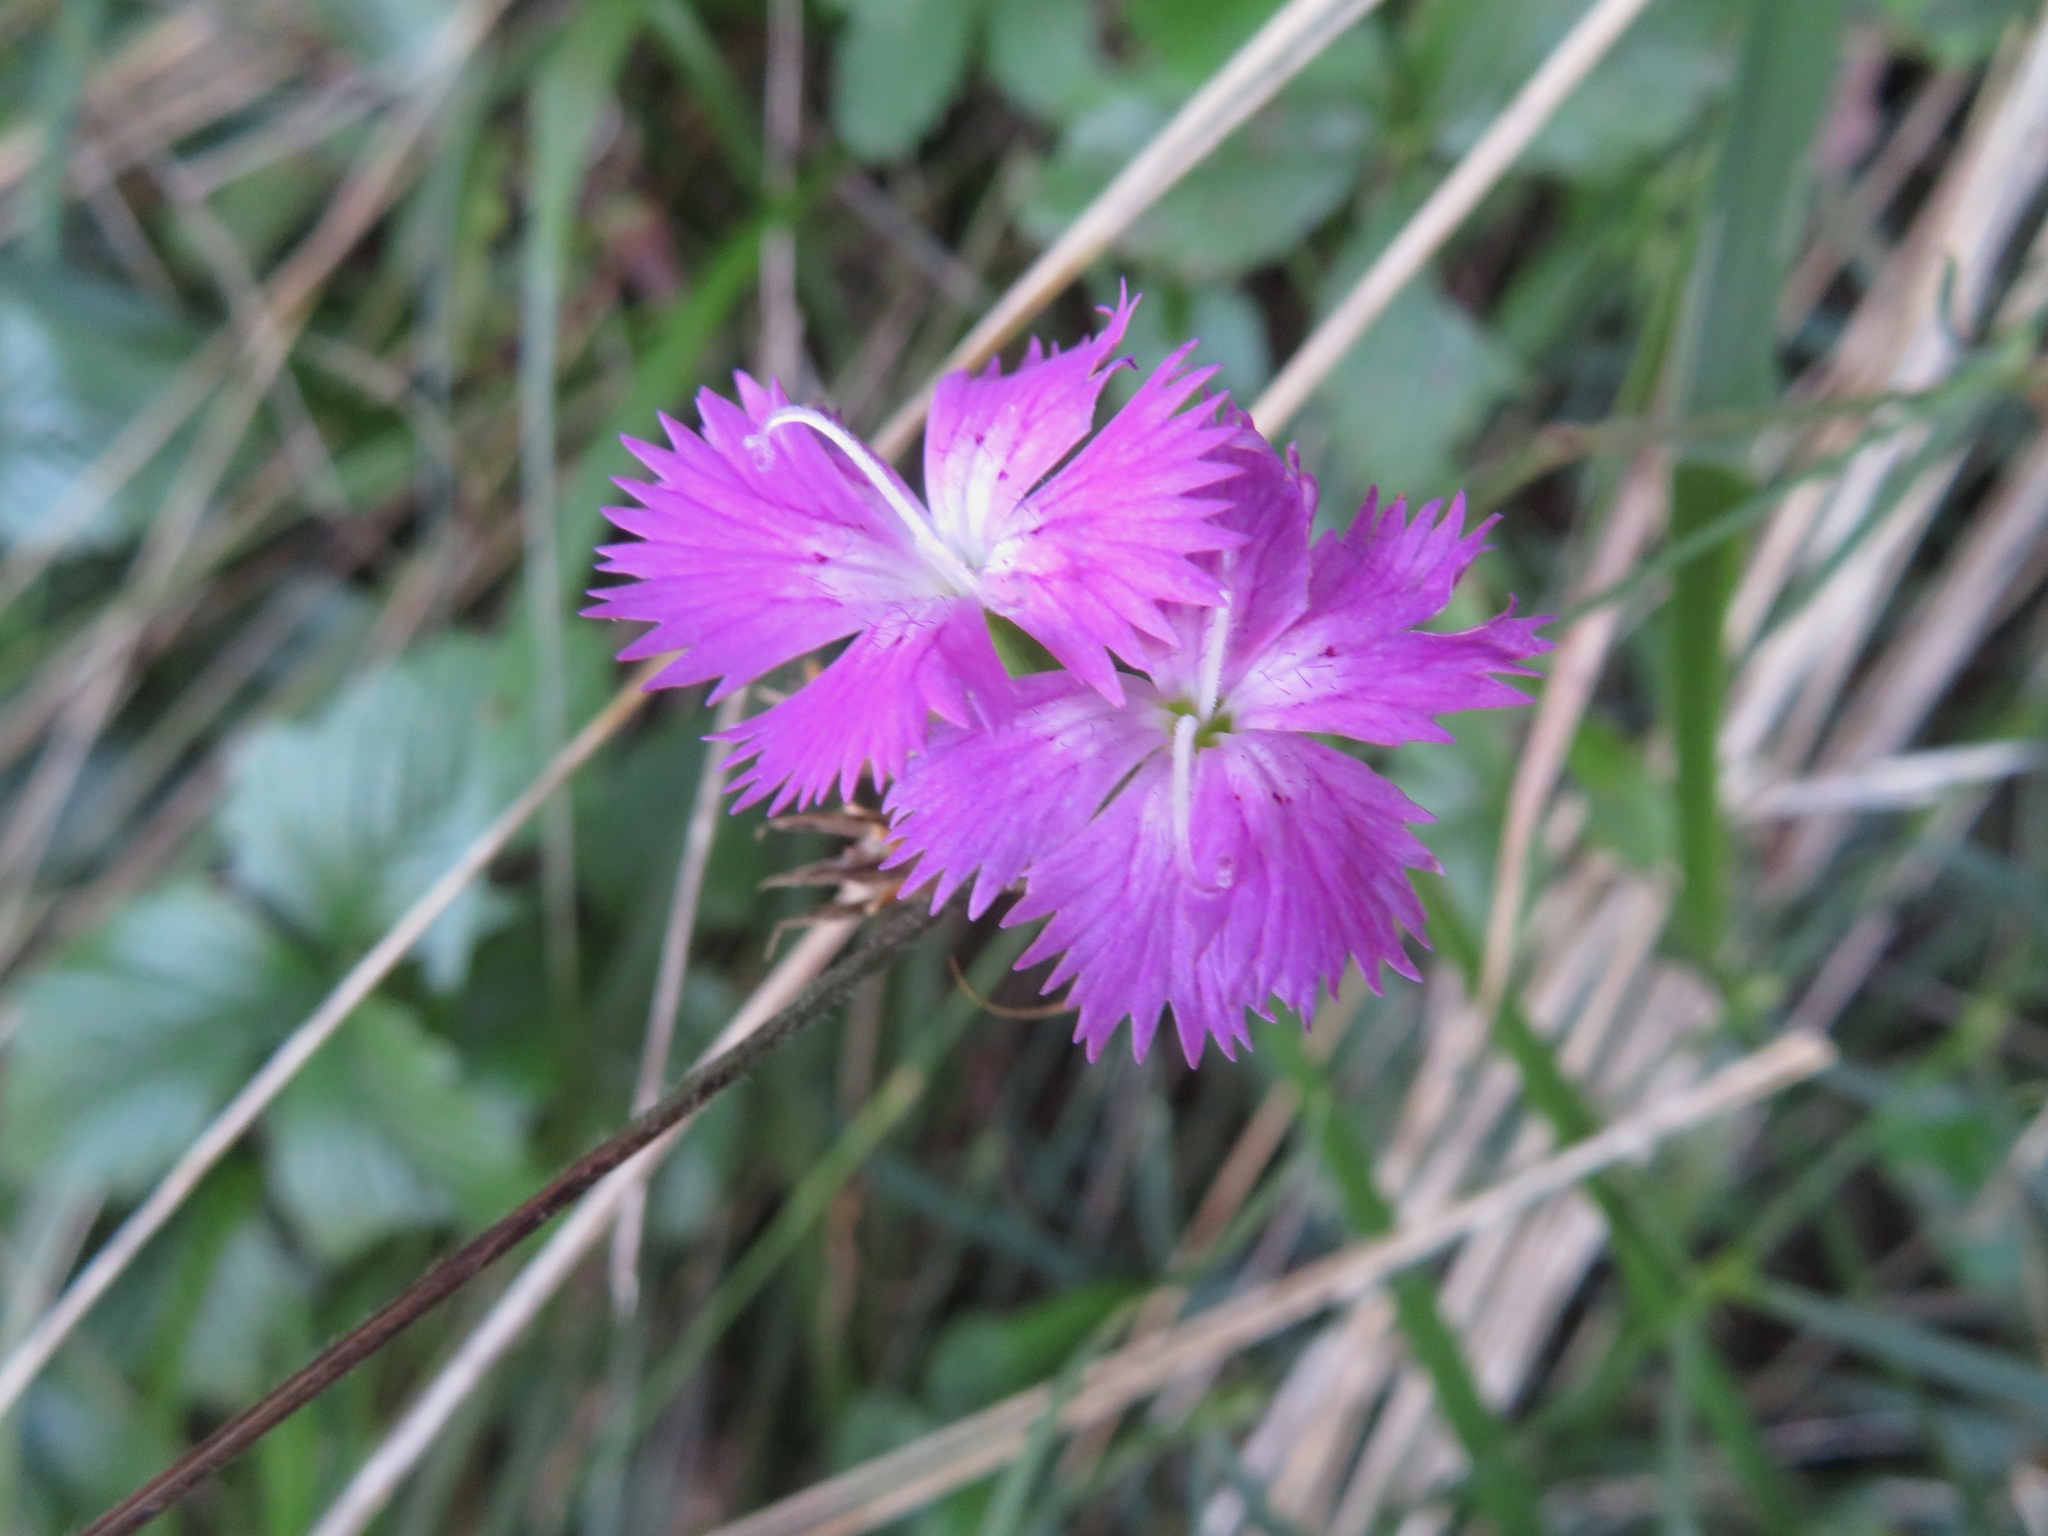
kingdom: Plantae
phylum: Tracheophyta
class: Magnoliopsida
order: Caryophyllales
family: Caryophyllaceae
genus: Dianthus
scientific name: Dianthus seguieri
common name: Ragged pink
